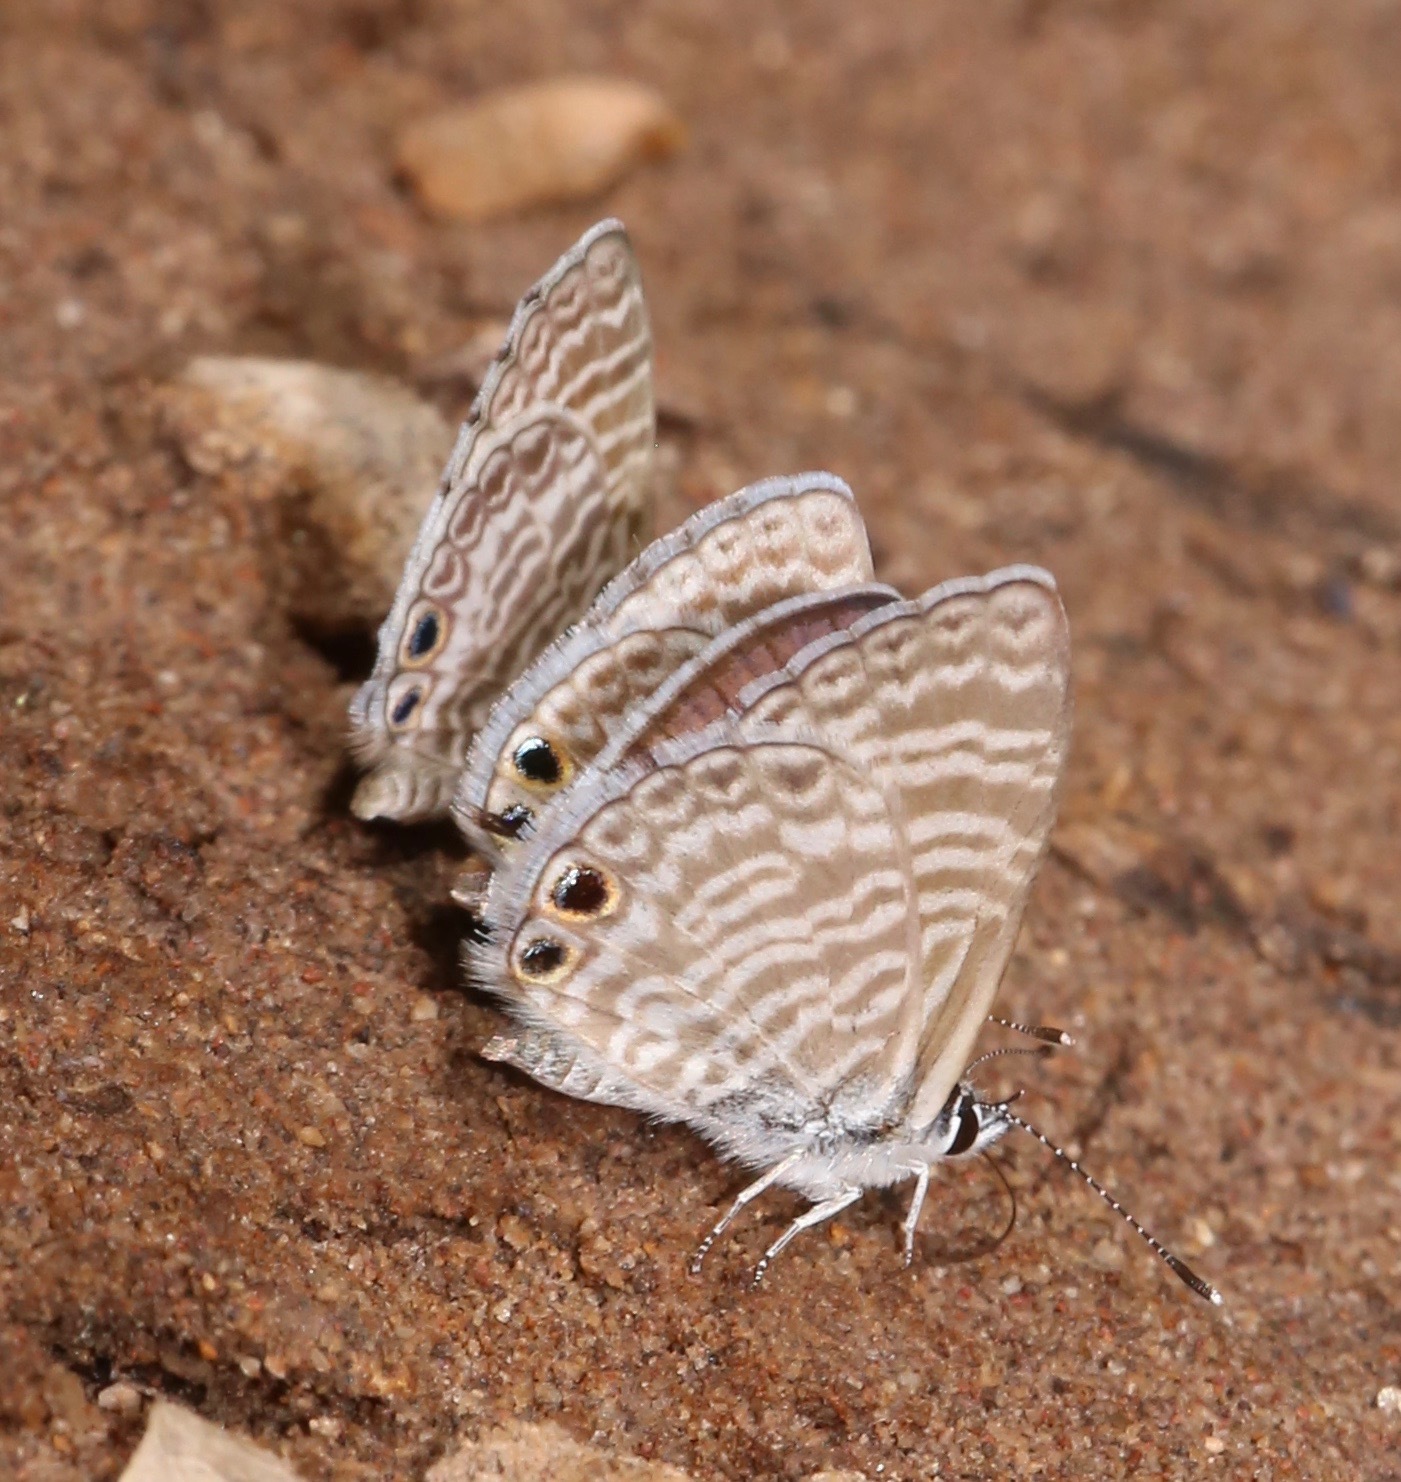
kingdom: Animalia
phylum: Arthropoda
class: Insecta
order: Lepidoptera
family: Lycaenidae
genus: Leptotes
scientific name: Leptotes marina
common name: Marine blue
